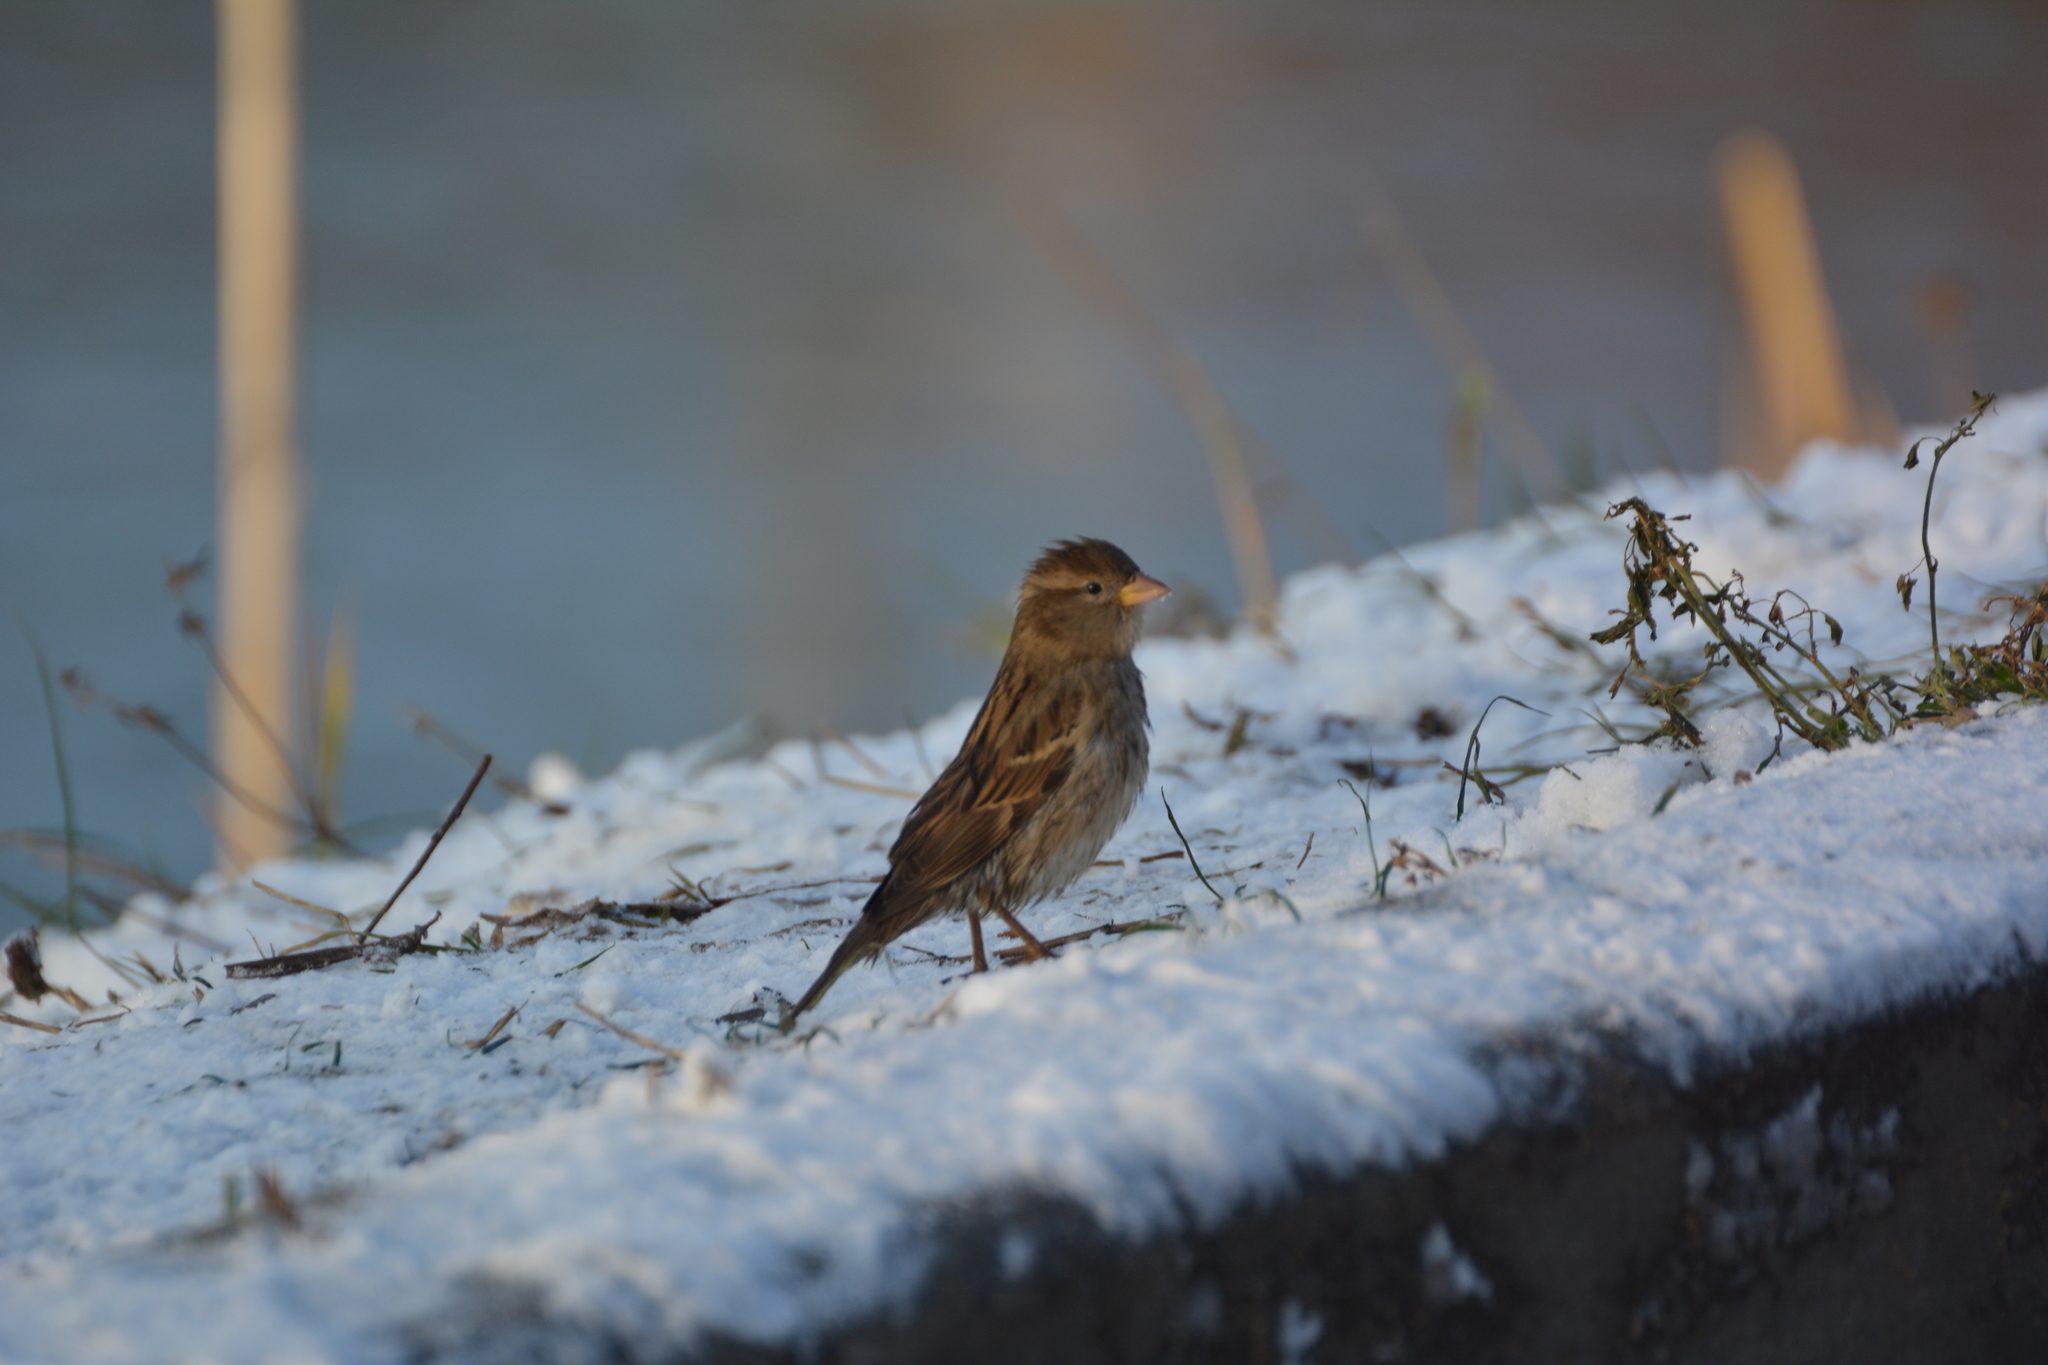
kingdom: Animalia
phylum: Chordata
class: Aves
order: Passeriformes
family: Passeridae
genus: Passer
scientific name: Passer domesticus
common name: House sparrow
